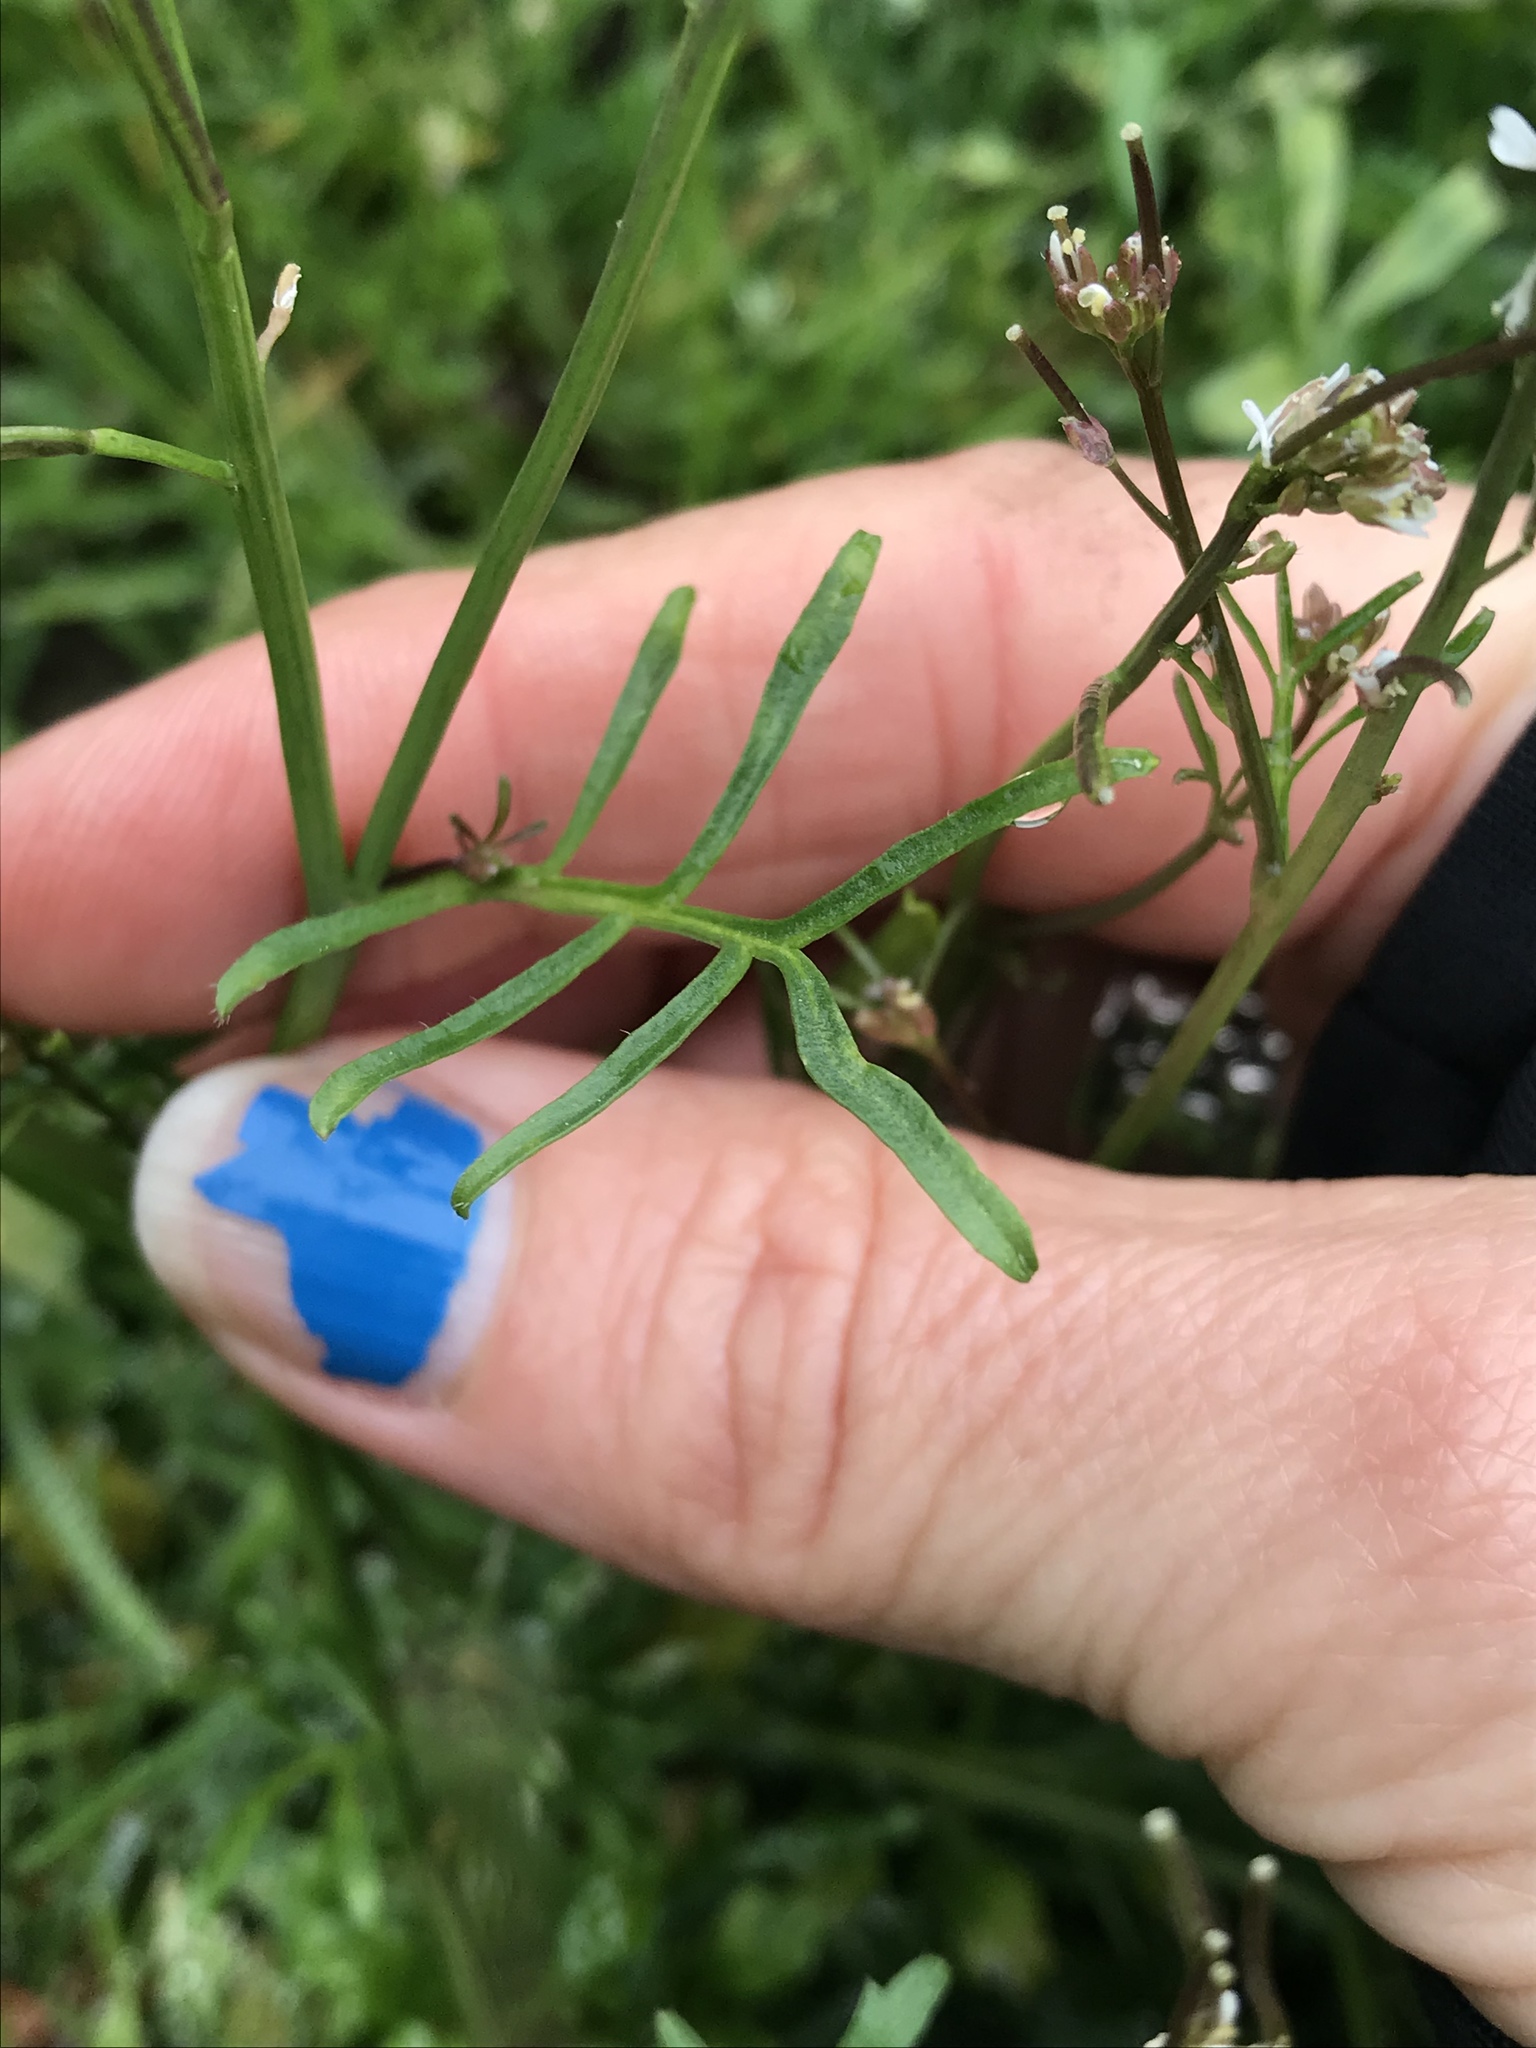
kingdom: Plantae
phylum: Tracheophyta
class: Magnoliopsida
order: Brassicales
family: Brassicaceae
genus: Cardamine
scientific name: Cardamine hirsuta
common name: Hairy bittercress
